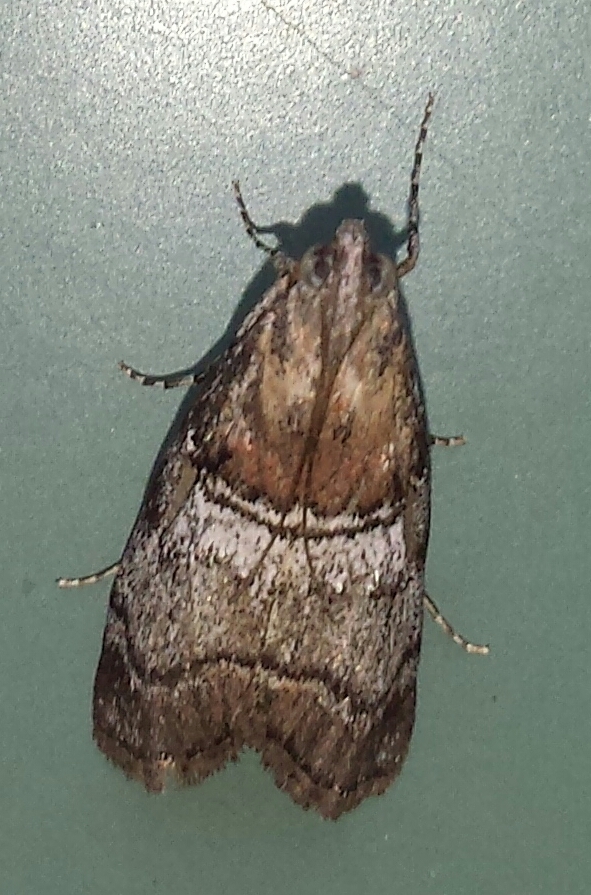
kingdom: Animalia
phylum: Arthropoda
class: Insecta
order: Lepidoptera
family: Pyralidae
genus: Pococera
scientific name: Pococera maritimalis
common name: Gray-banded pococera moth
